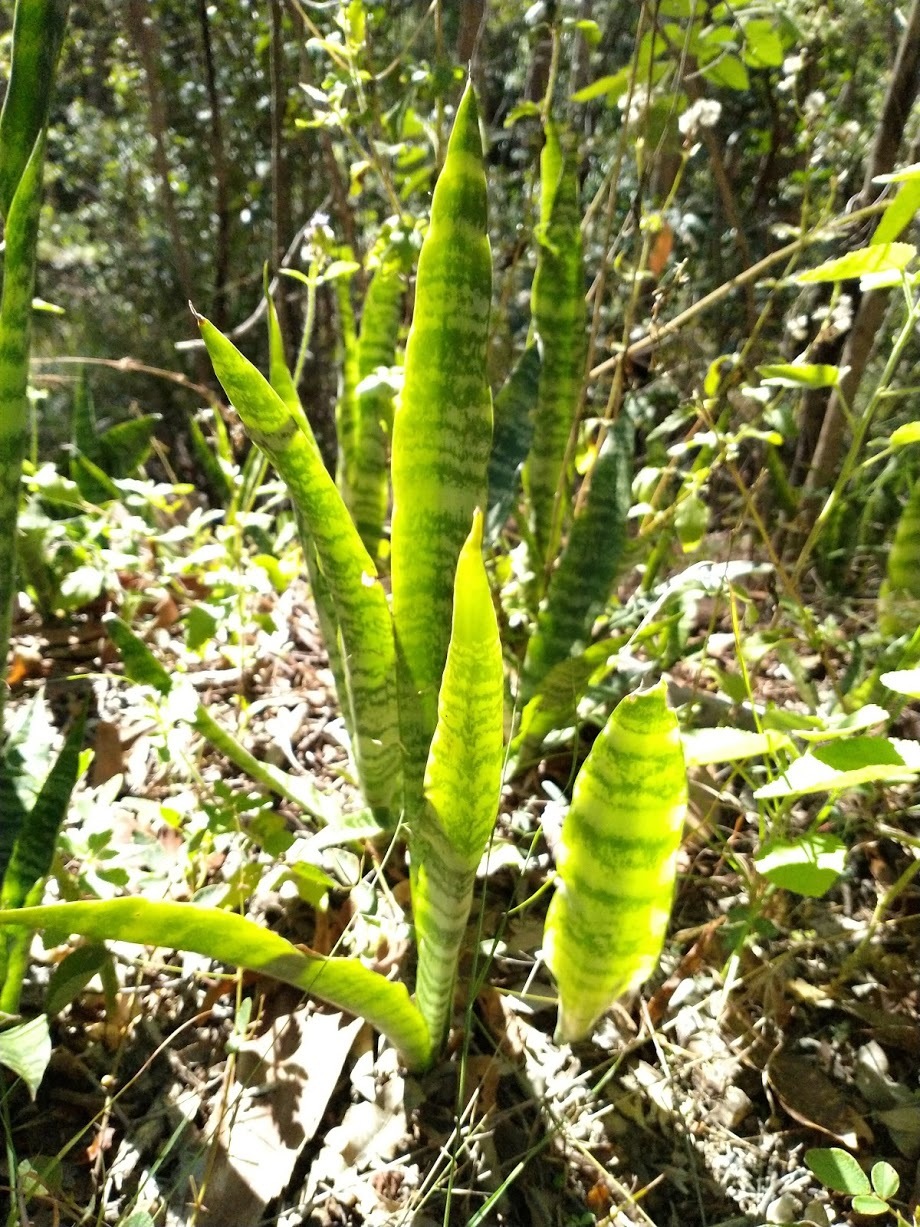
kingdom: Plantae
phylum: Tracheophyta
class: Liliopsida
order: Asparagales
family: Asparagaceae
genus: Dracaena
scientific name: Dracaena trifasciata
